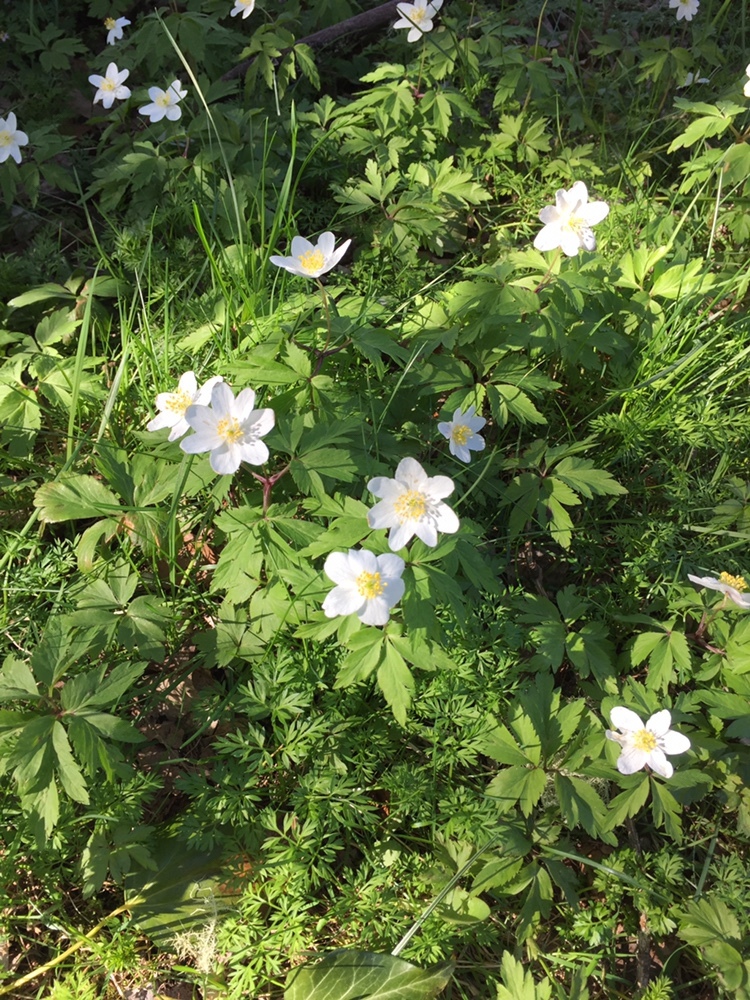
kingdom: Plantae
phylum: Tracheophyta
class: Magnoliopsida
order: Ranunculales
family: Ranunculaceae
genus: Anemone
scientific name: Anemone nemorosa
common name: Wood anemone
